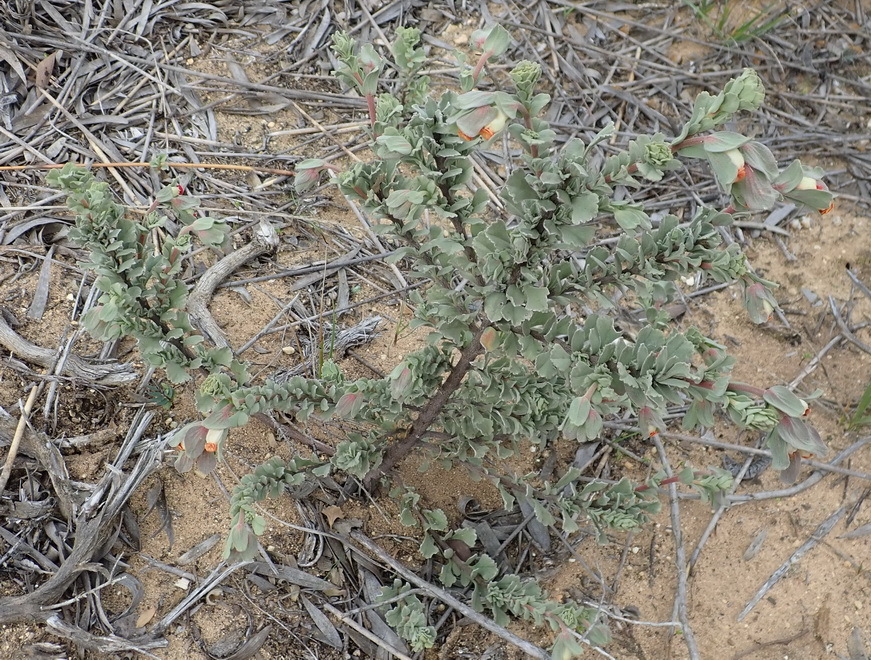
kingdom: Plantae
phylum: Tracheophyta
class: Magnoliopsida
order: Malvales
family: Malvaceae
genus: Hermannia
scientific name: Hermannia trifoliata
